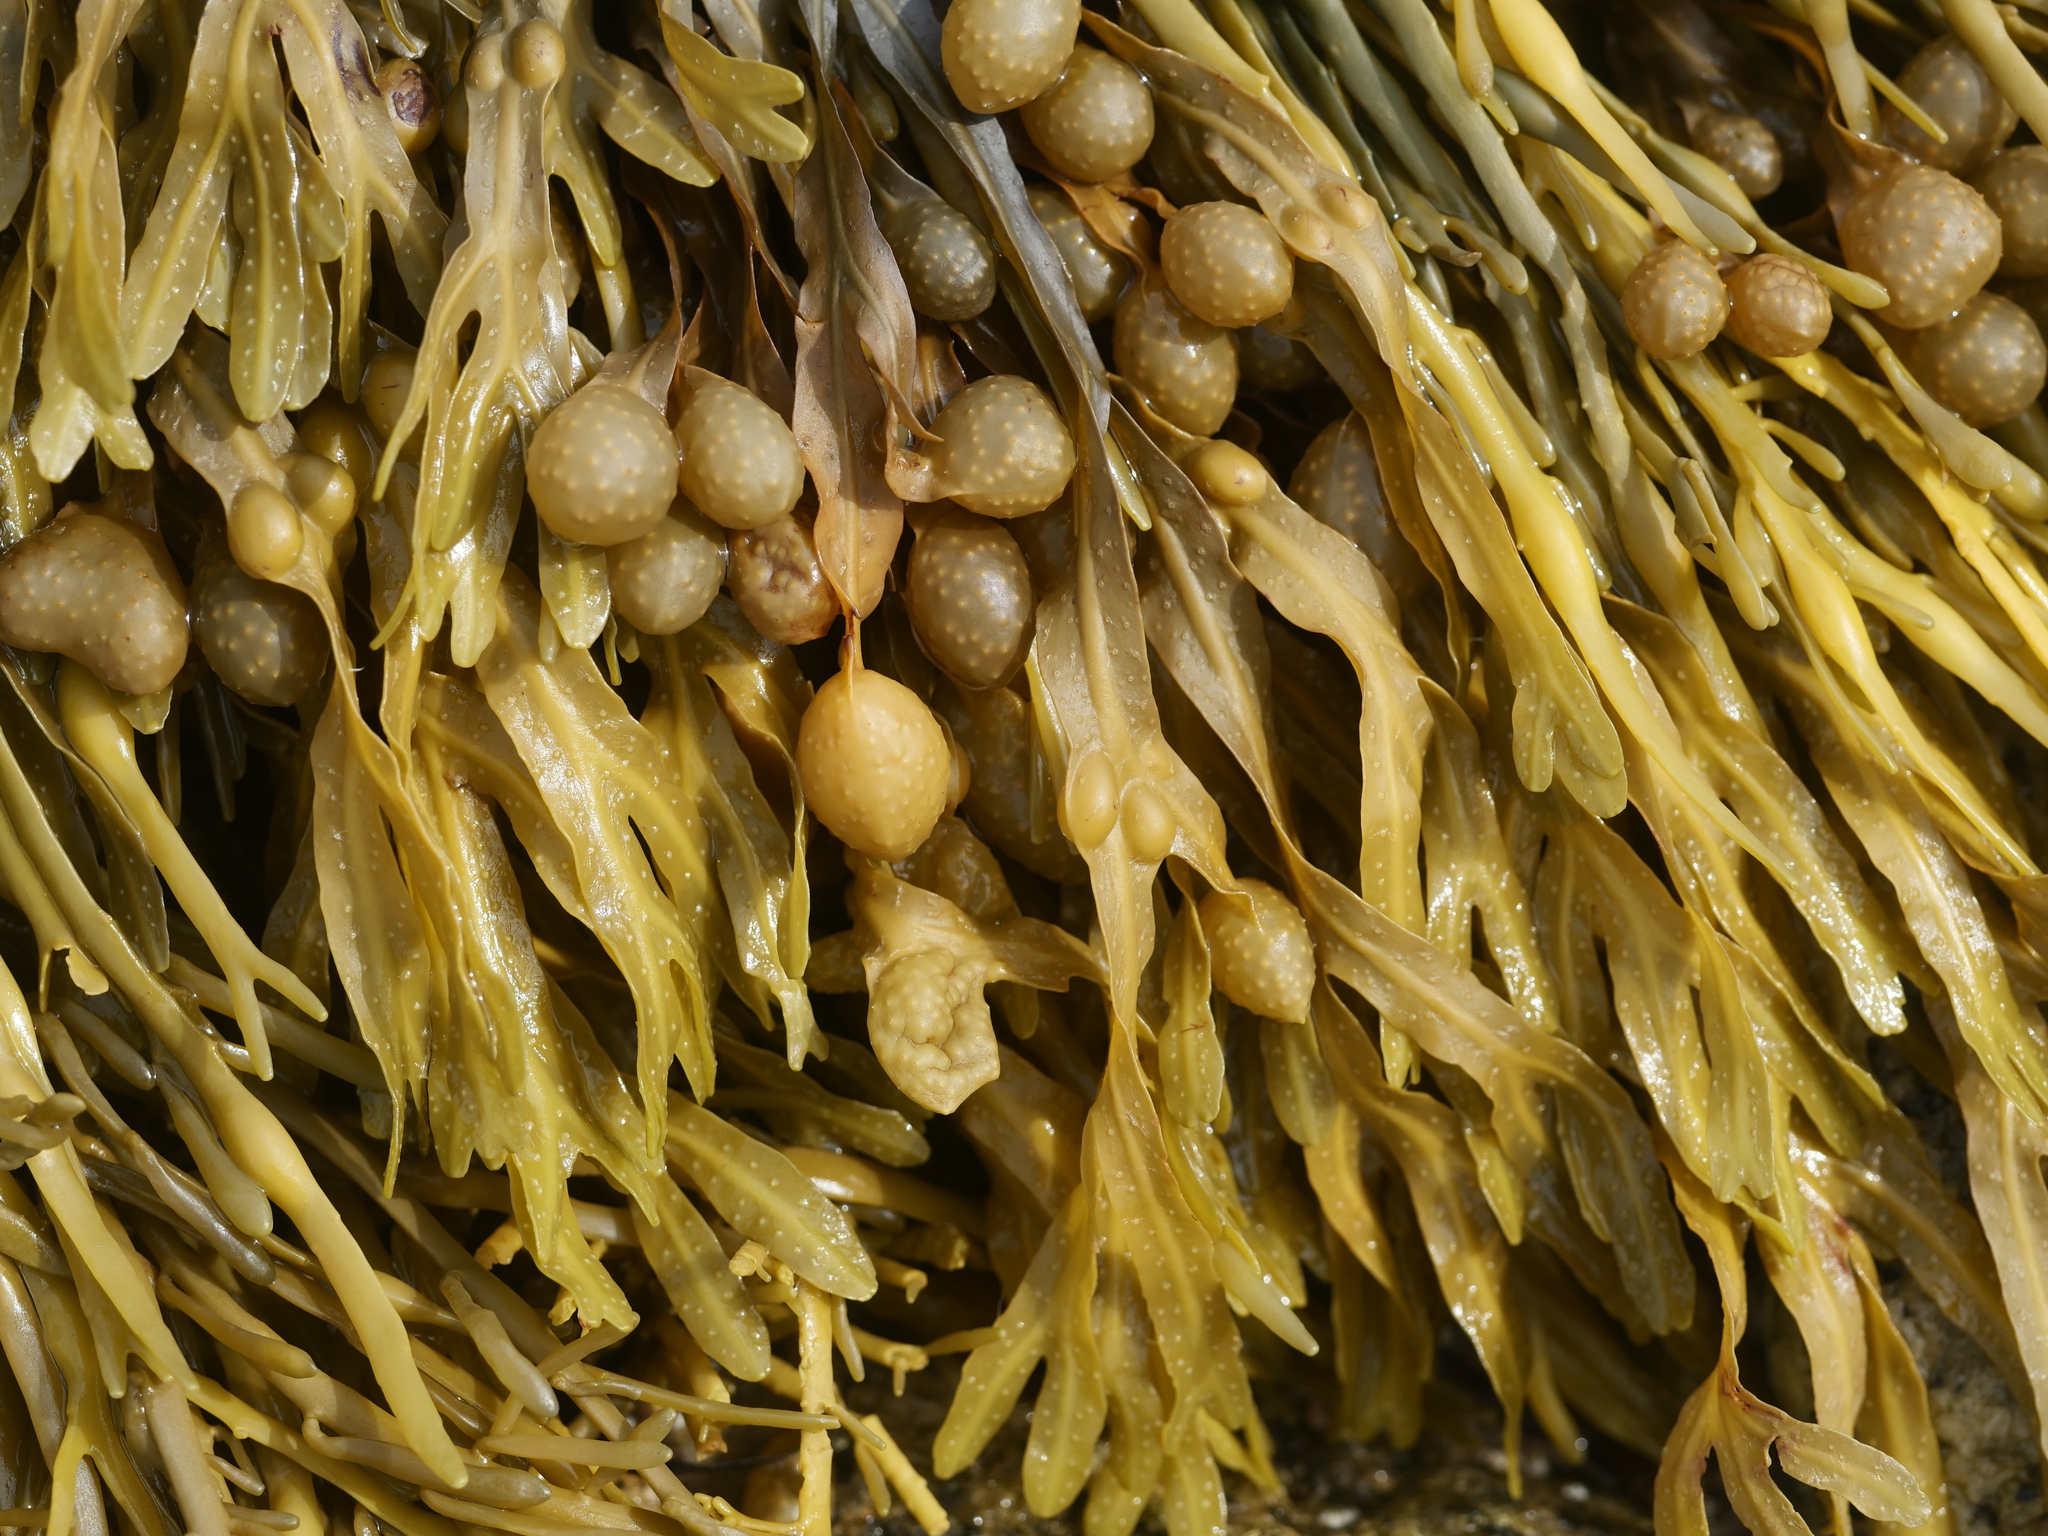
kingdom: Chromista
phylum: Ochrophyta
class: Phaeophyceae
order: Fucales
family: Fucaceae
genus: Fucus
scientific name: Fucus vesiculosus
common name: Bladder wrack
